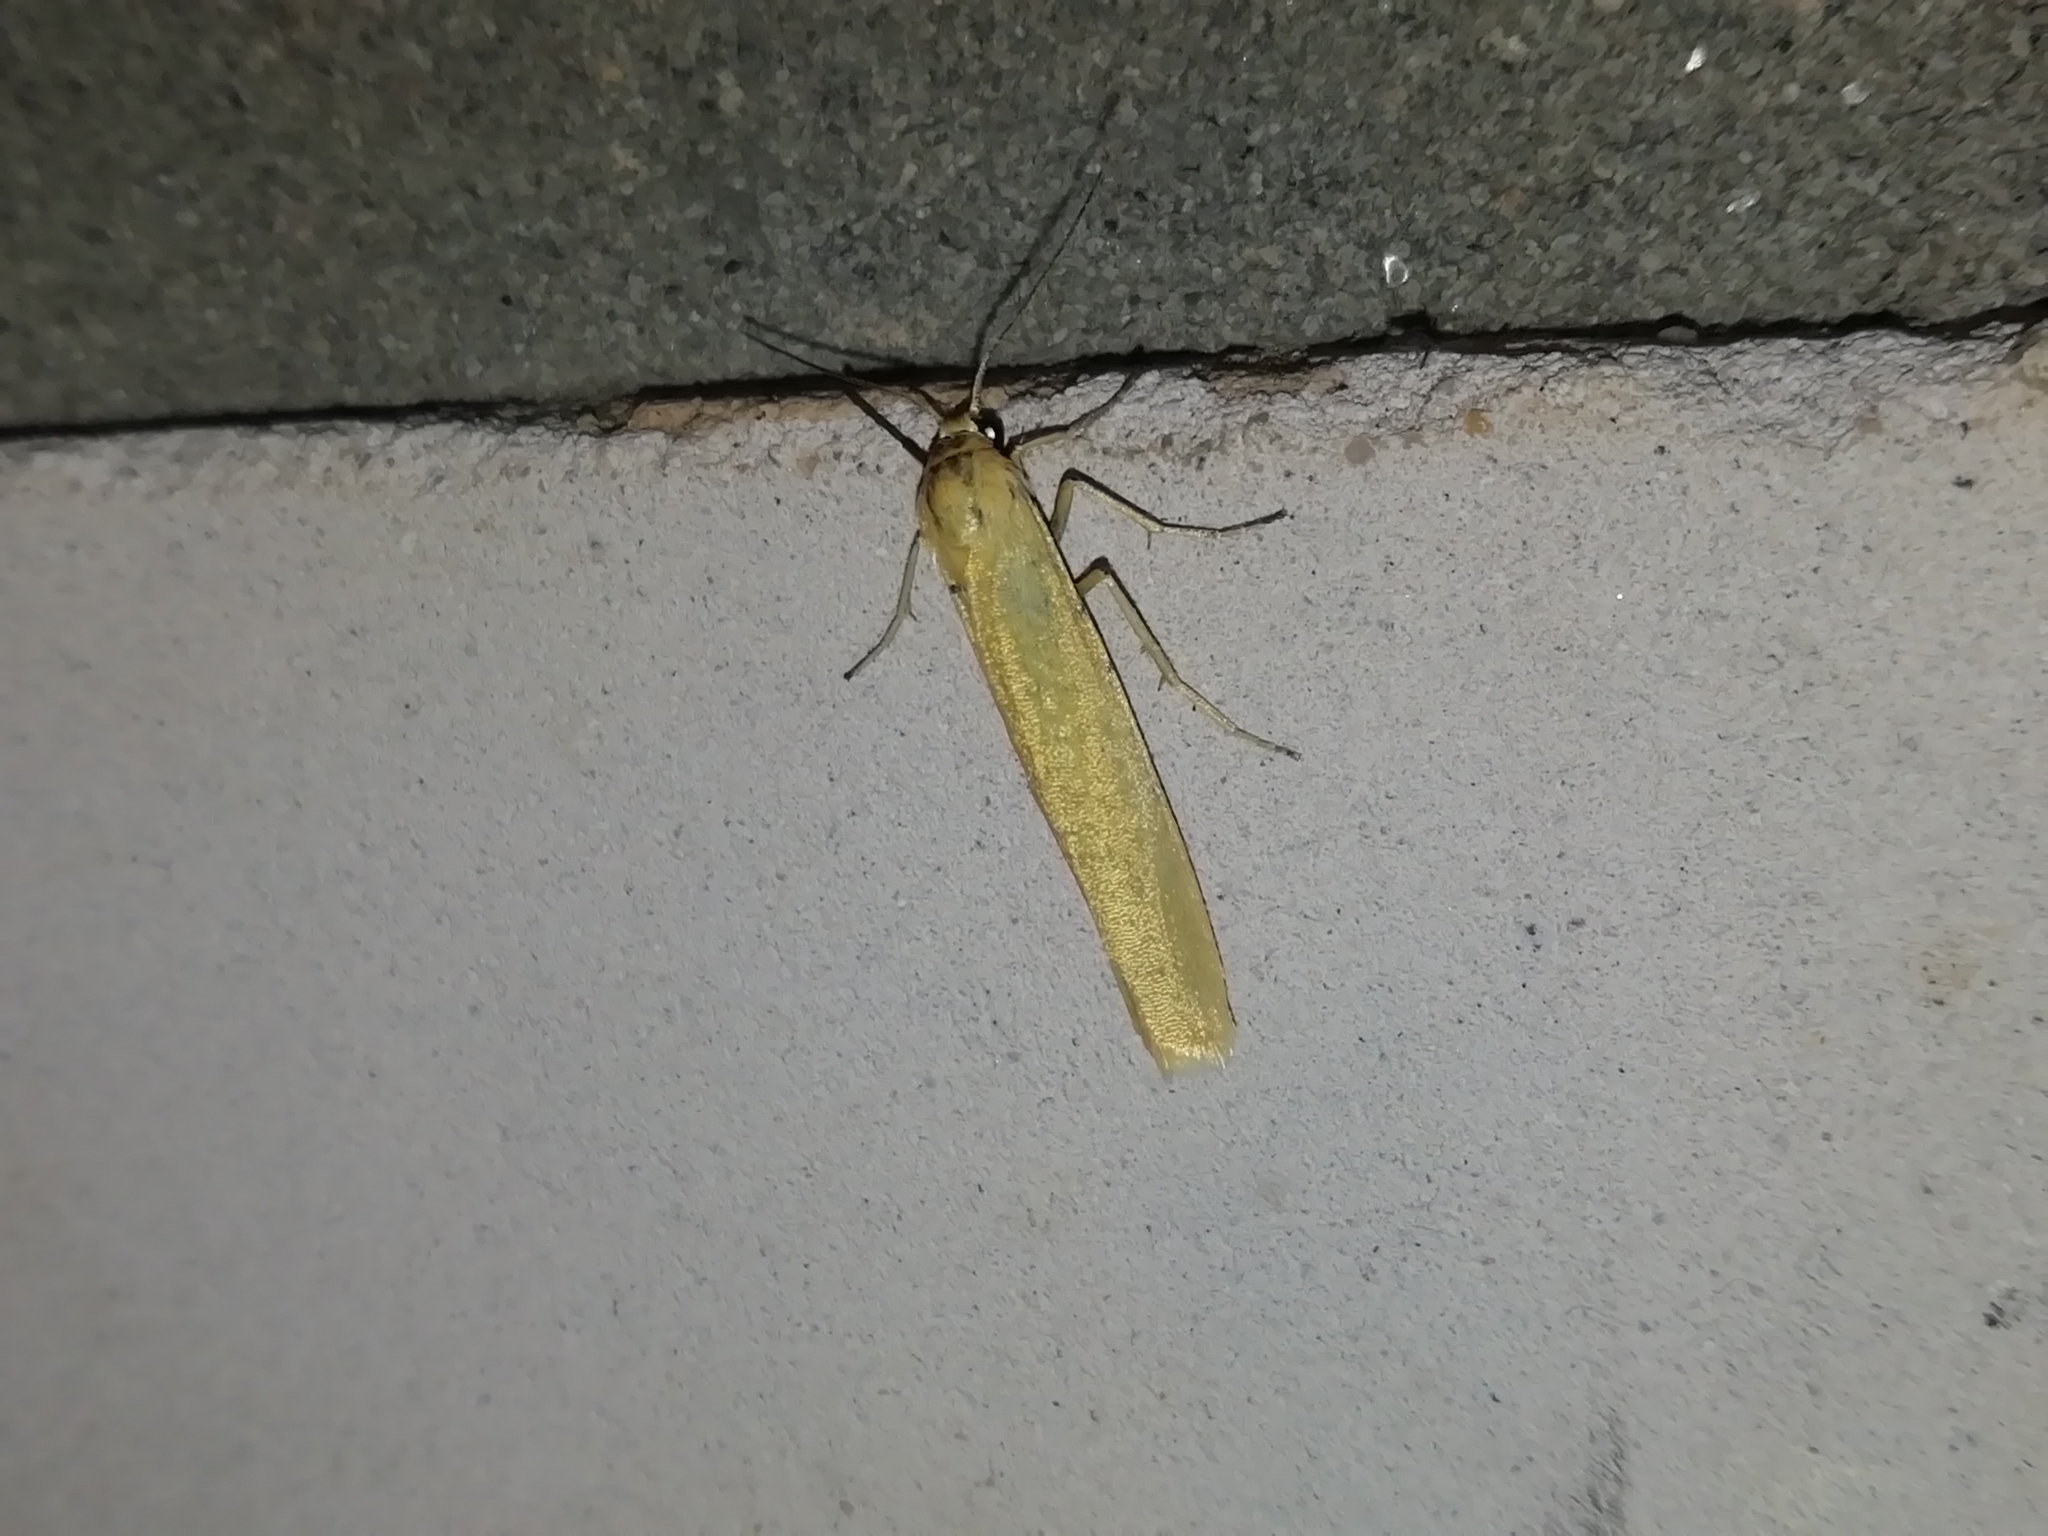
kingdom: Animalia
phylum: Arthropoda
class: Insecta
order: Lepidoptera
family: Erebidae
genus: Indalia
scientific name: Indalia lutarella
